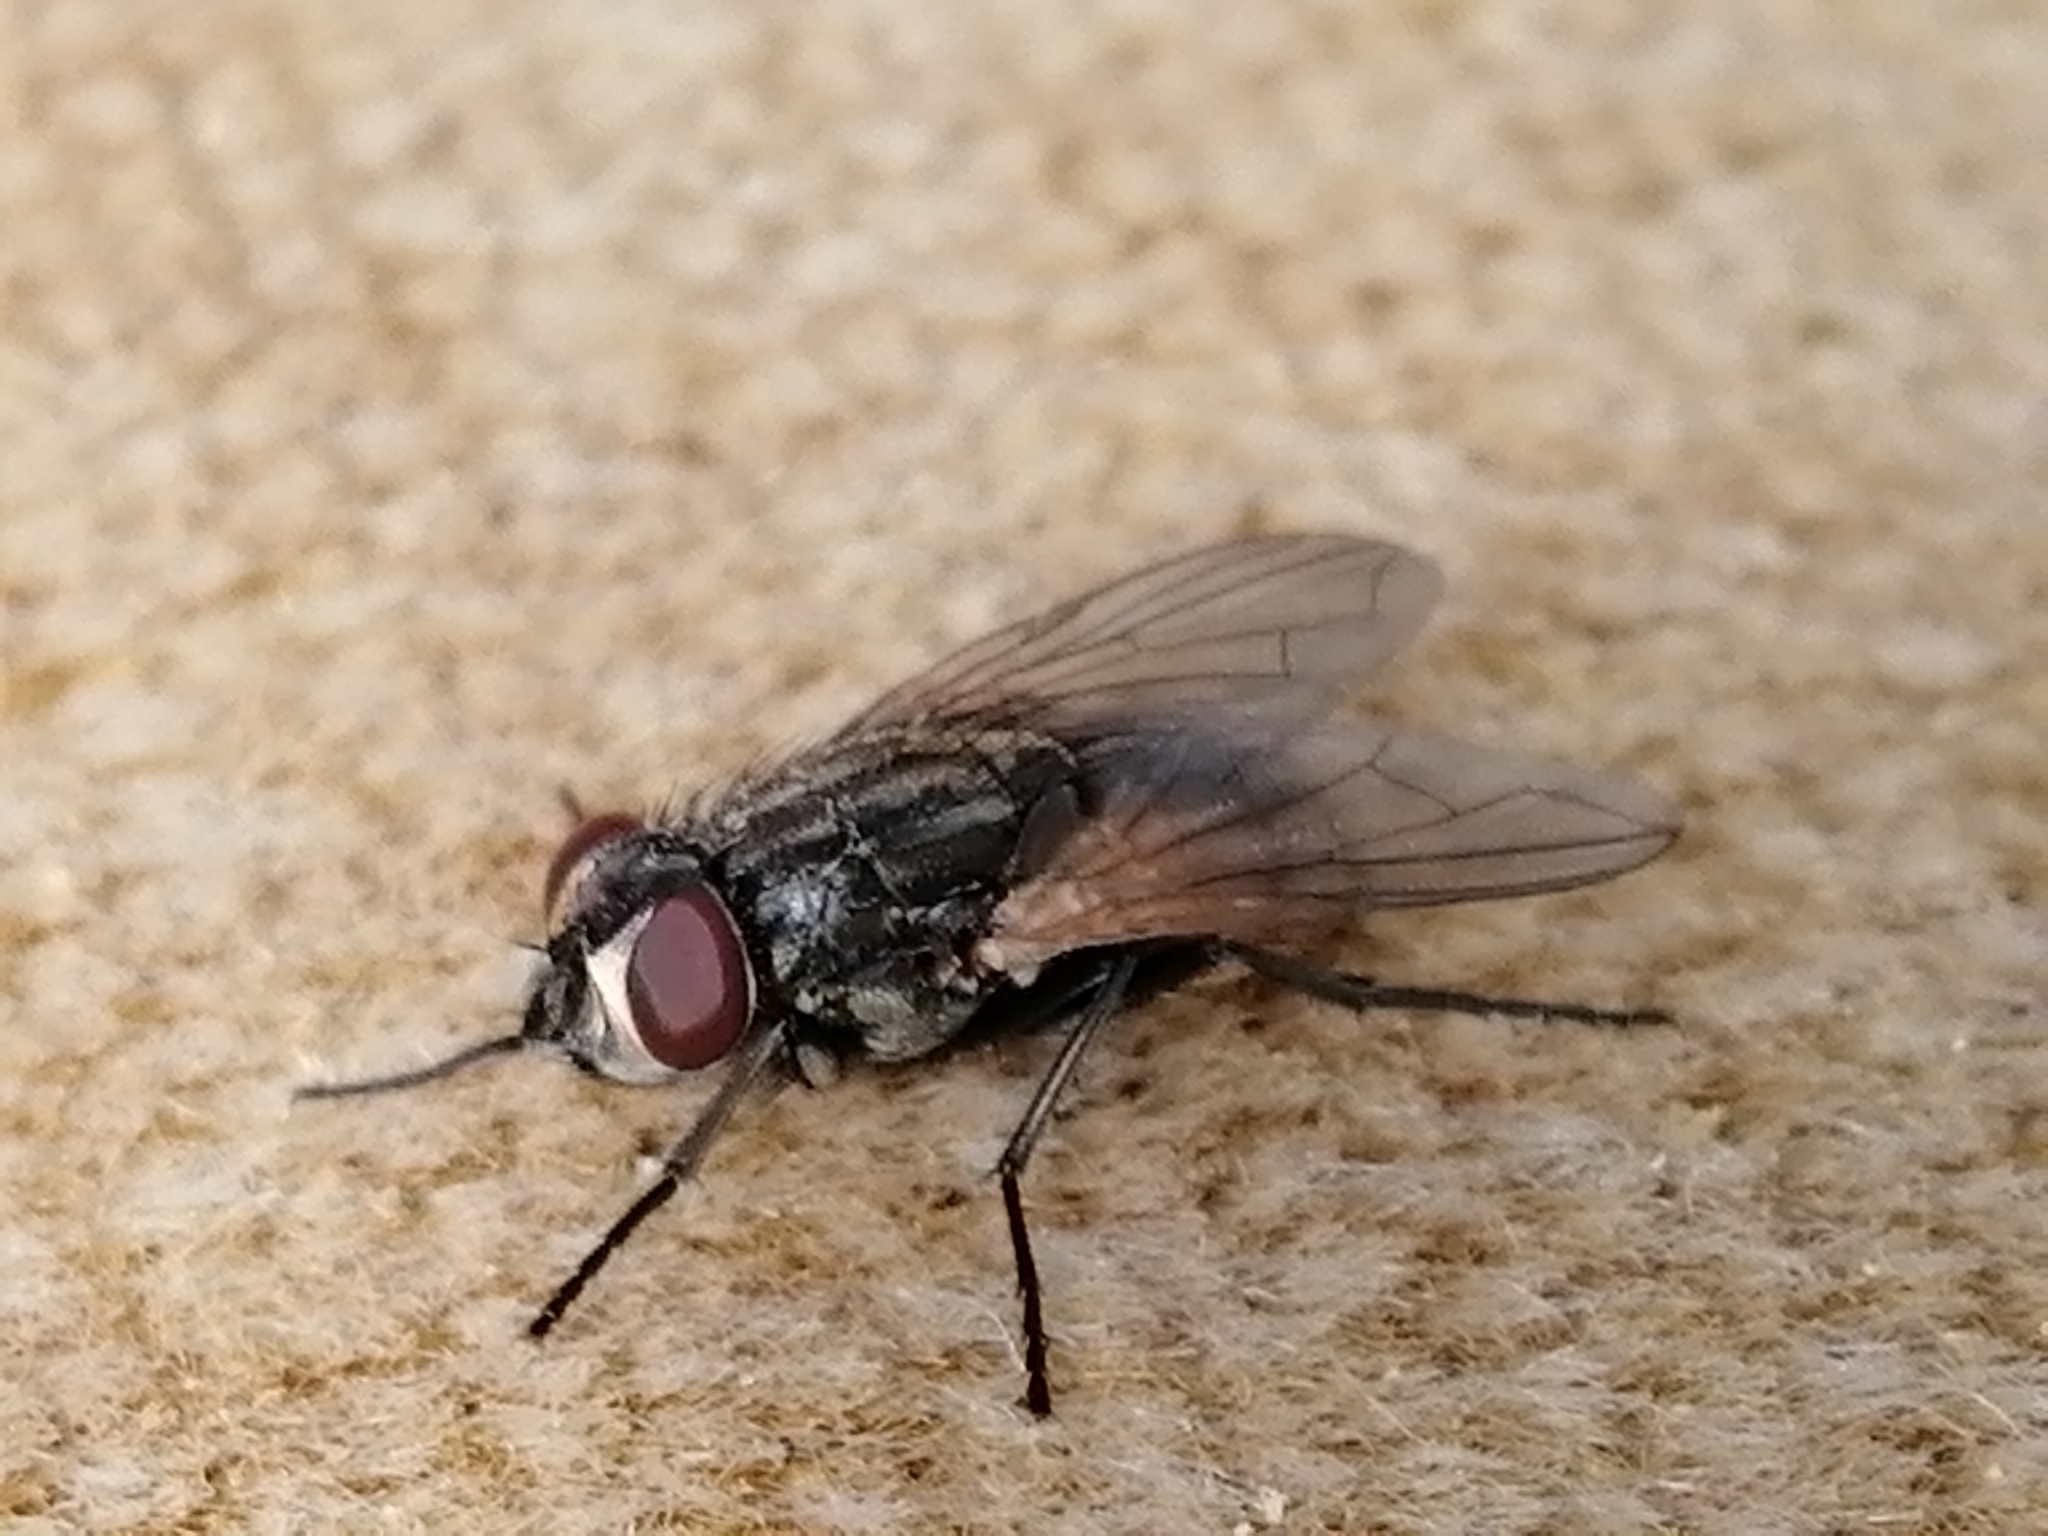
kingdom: Animalia
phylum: Arthropoda
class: Insecta
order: Diptera
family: Muscidae
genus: Musca
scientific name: Musca domestica
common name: House fly
